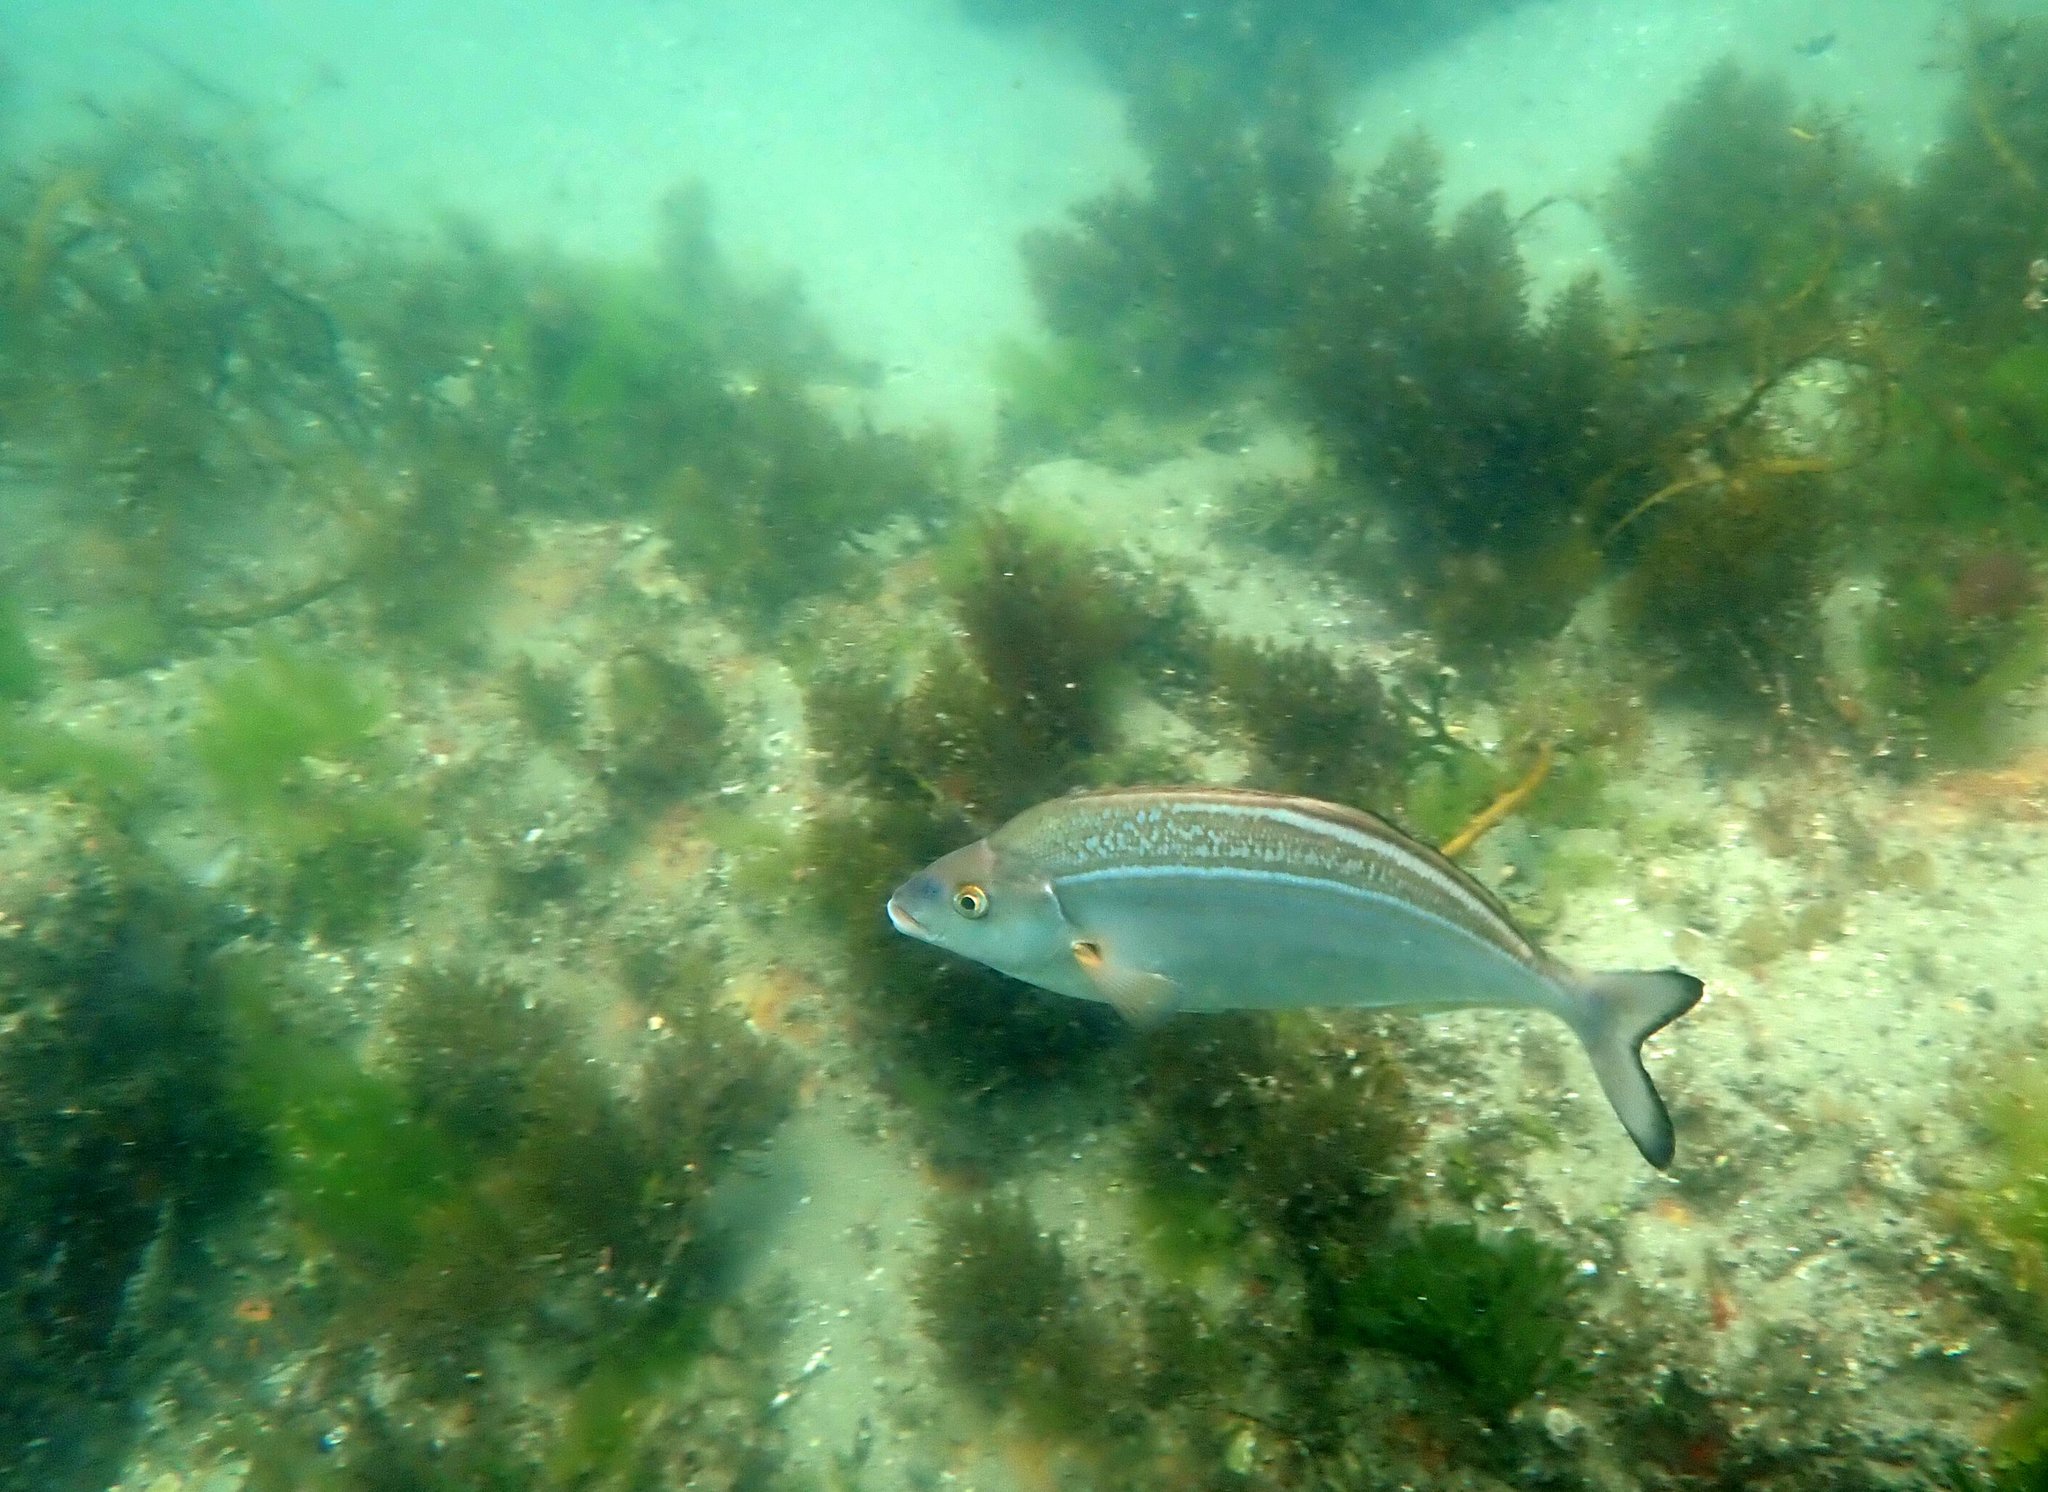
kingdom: Animalia
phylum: Chordata
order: Perciformes
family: Latridae
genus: Latridopsis
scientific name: Latridopsis forsteri
